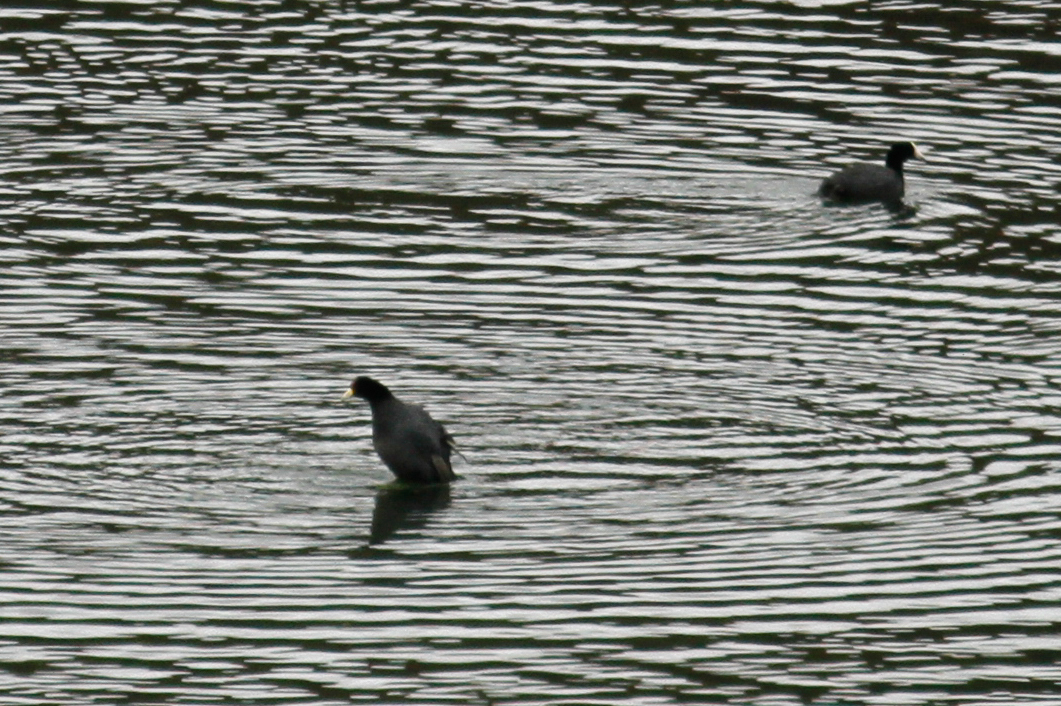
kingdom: Animalia
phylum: Chordata
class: Aves
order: Gruiformes
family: Rallidae
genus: Fulica
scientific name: Fulica ardesiaca
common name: Andean coot
